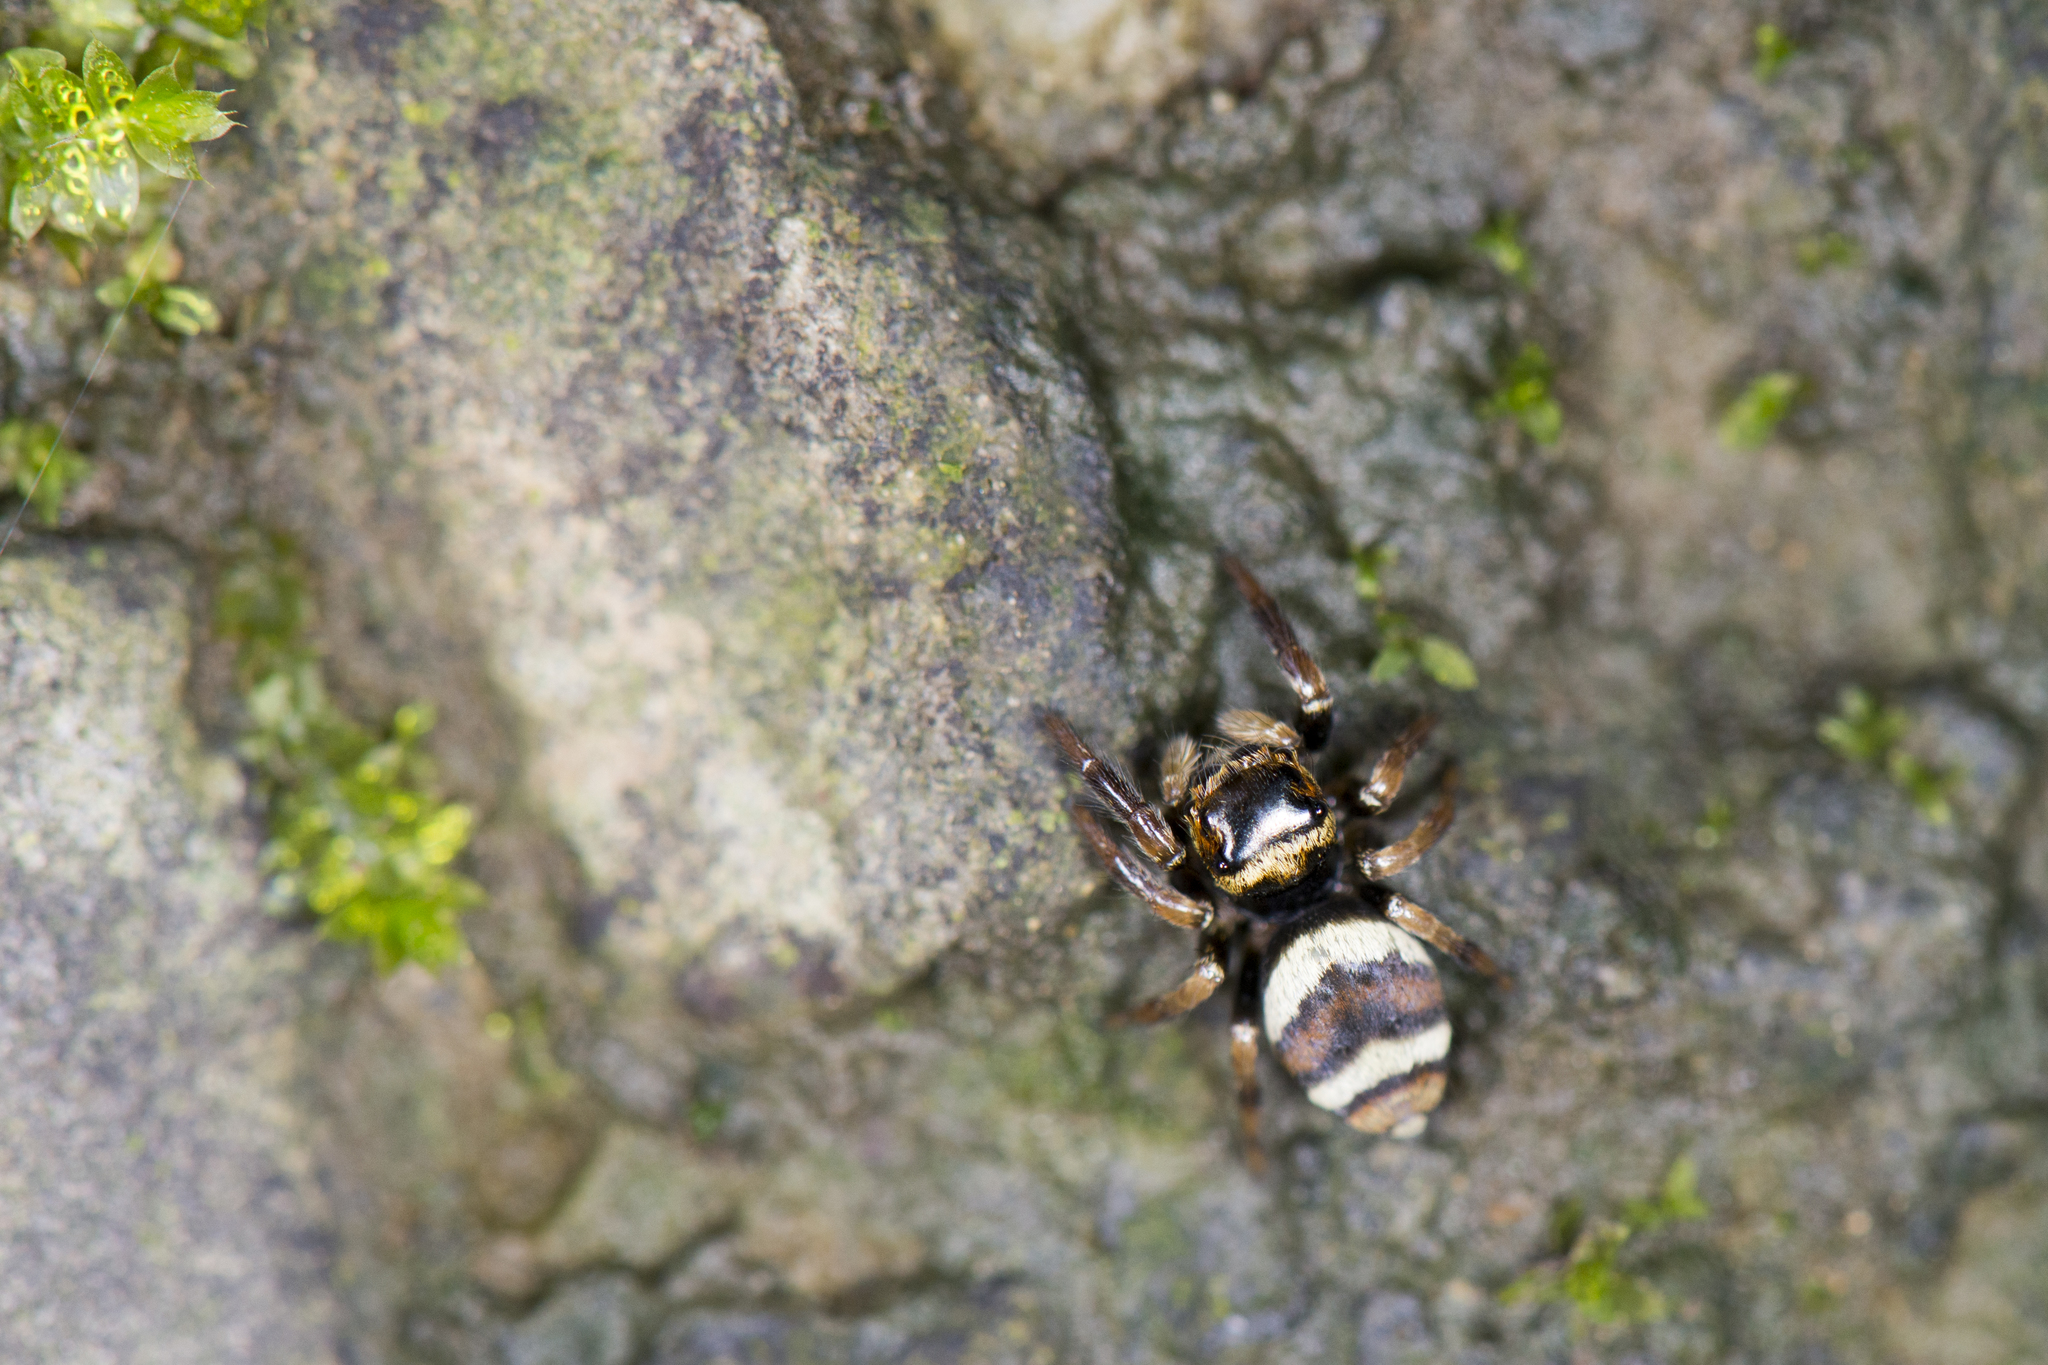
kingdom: Animalia
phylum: Arthropoda
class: Arachnida
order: Araneae
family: Salticidae
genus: Ptocasius
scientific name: Ptocasius strupifer
